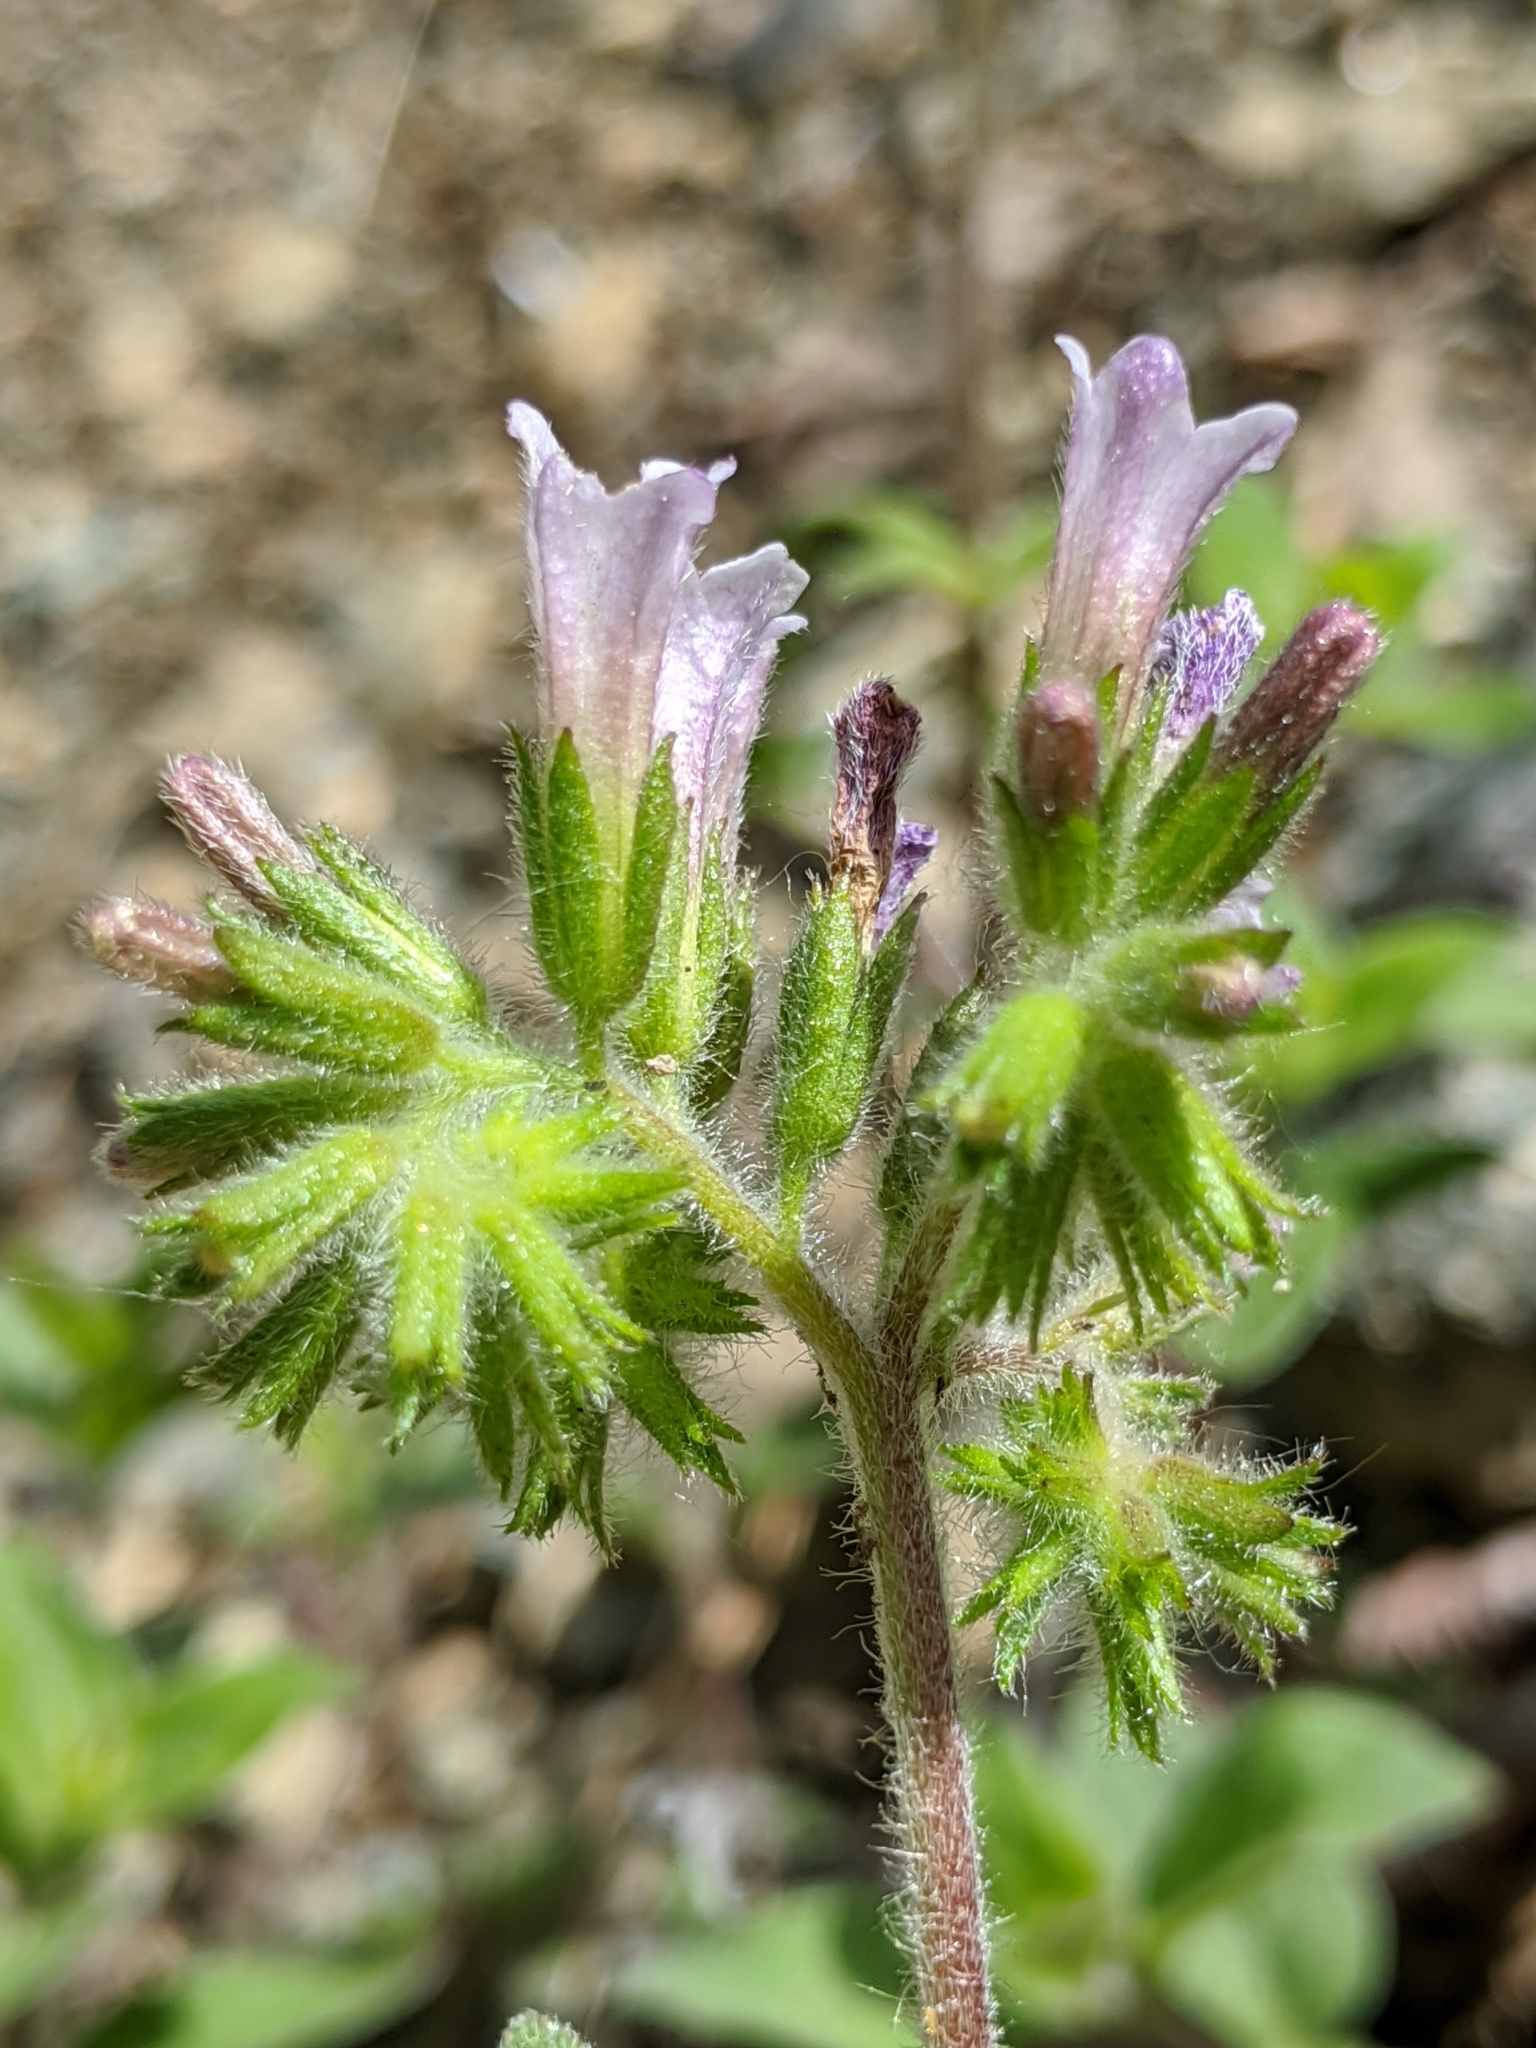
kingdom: Plantae
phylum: Tracheophyta
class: Magnoliopsida
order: Boraginales
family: Hydrophyllaceae
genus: Draperia
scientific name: Draperia systyla
